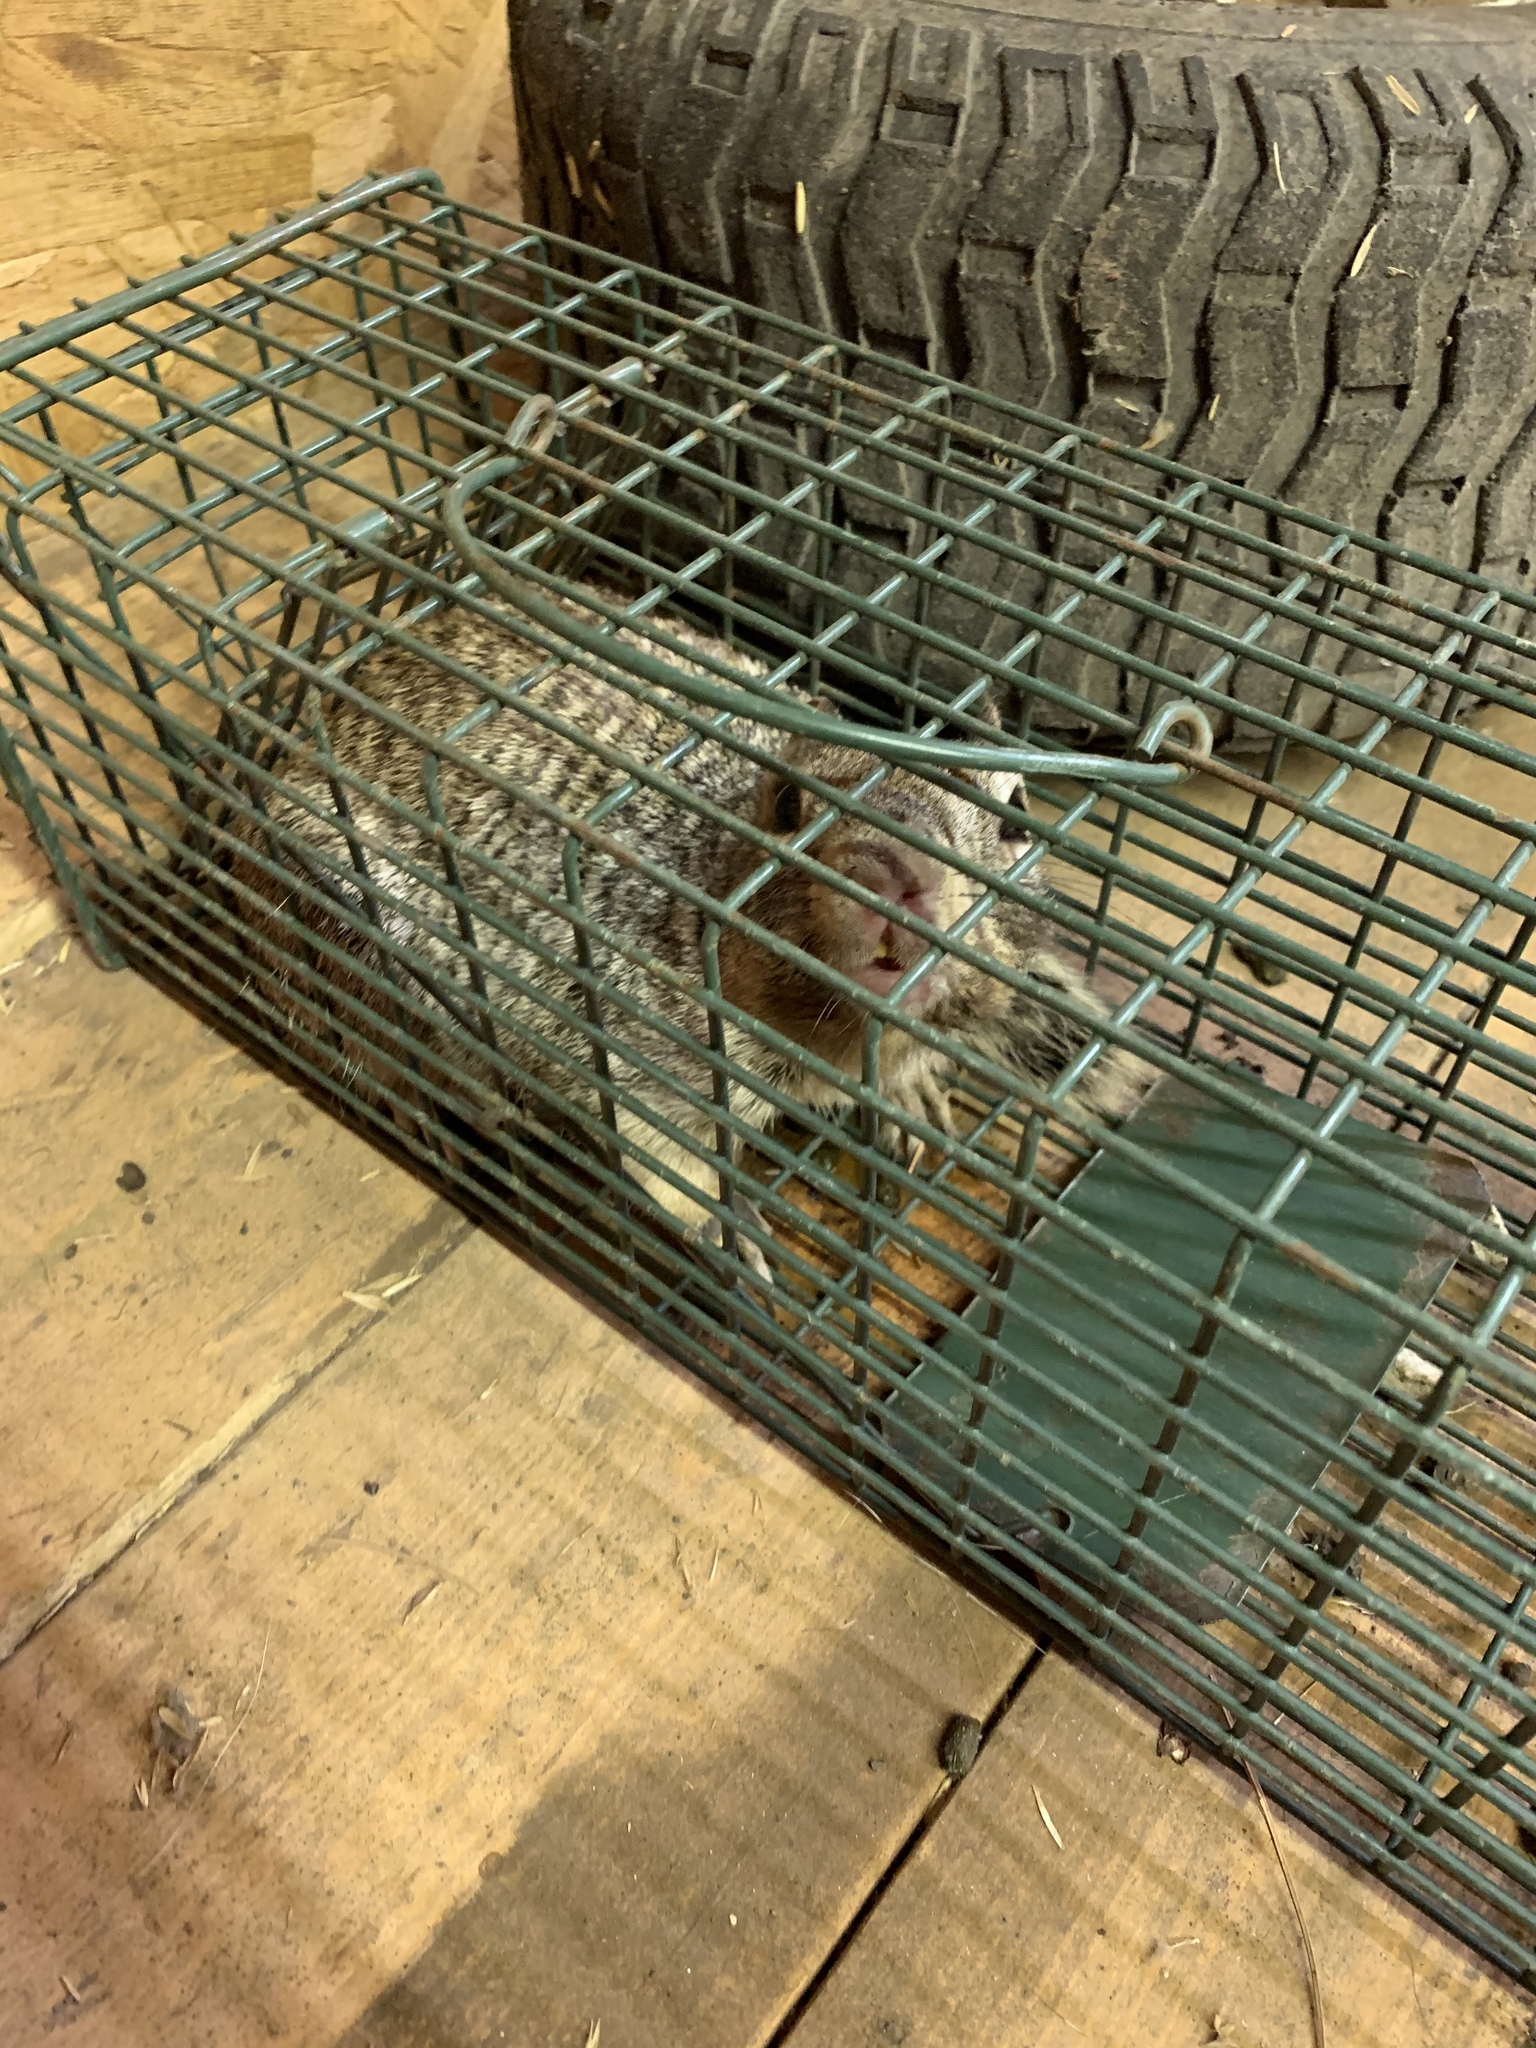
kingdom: Animalia
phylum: Chordata
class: Mammalia
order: Rodentia
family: Sciuridae
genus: Otospermophilus
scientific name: Otospermophilus variegatus
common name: Rock squirrel
